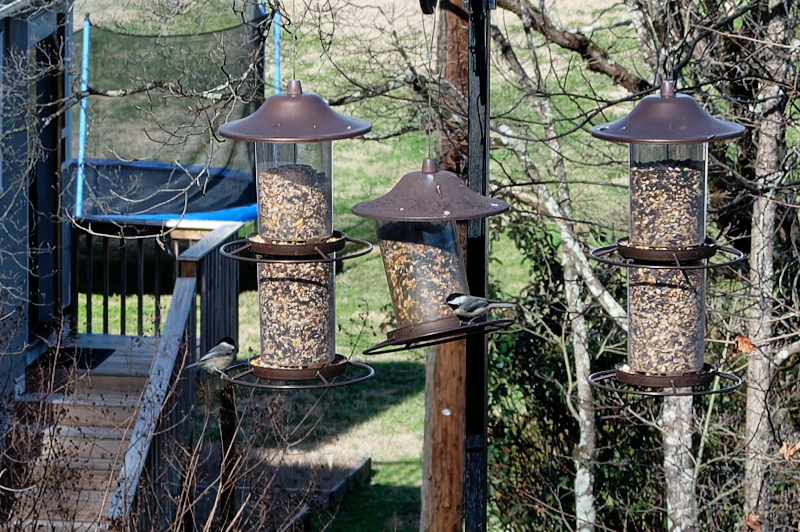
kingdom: Animalia
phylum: Chordata
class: Aves
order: Passeriformes
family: Paridae
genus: Poecile
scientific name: Poecile carolinensis
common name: Carolina chickadee
